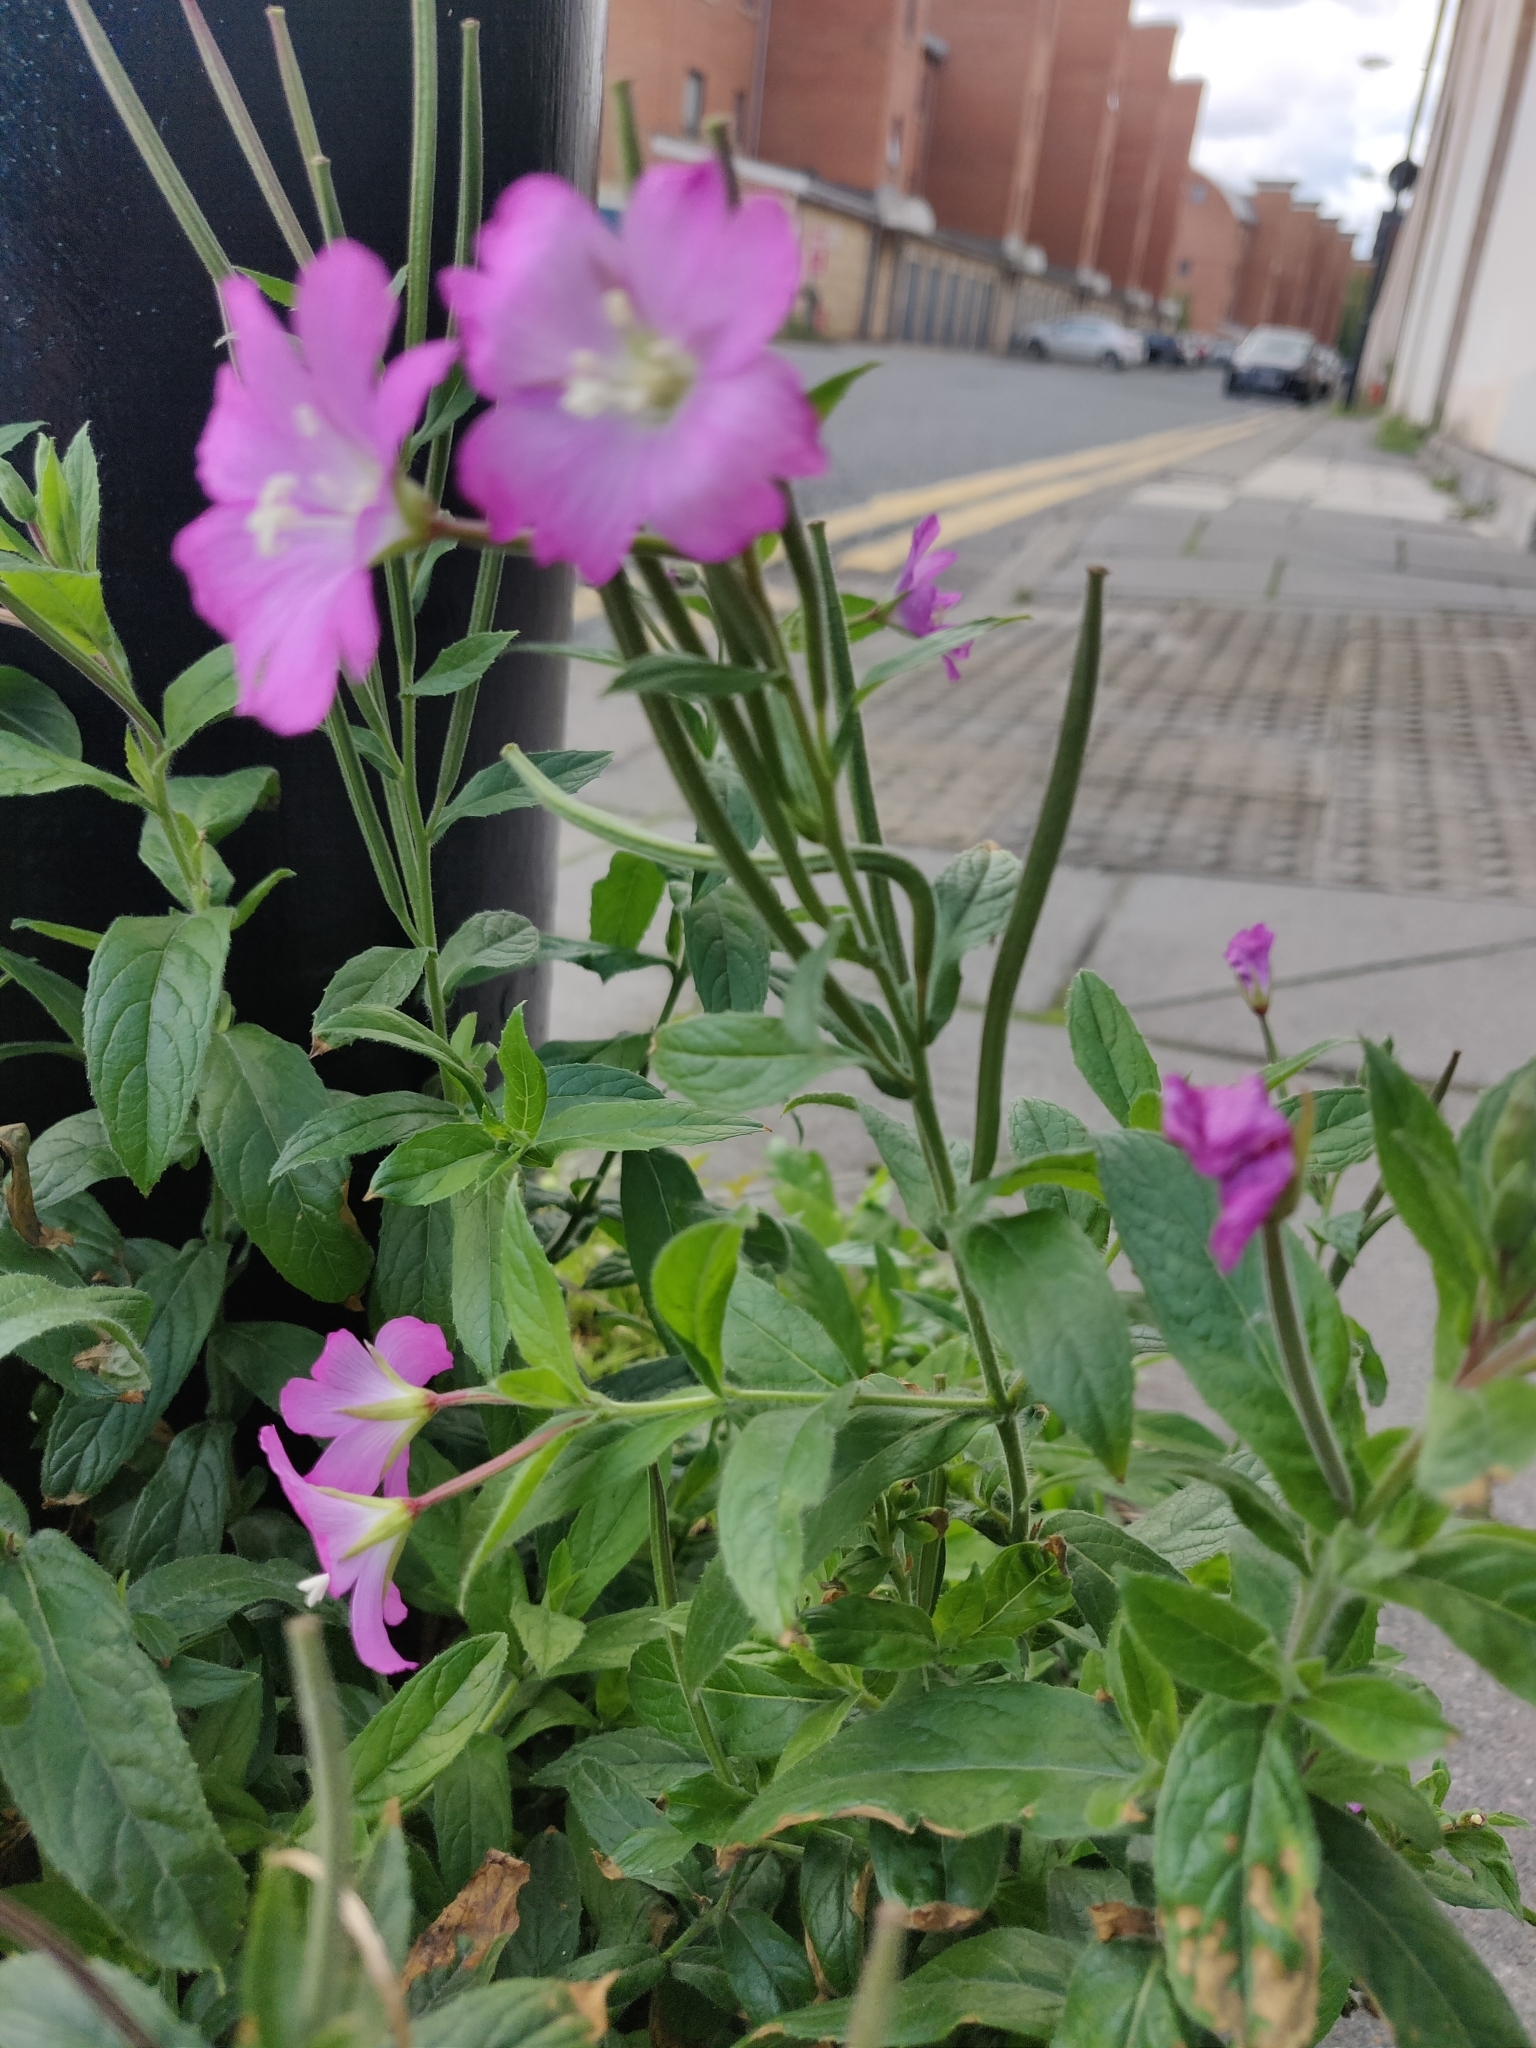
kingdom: Plantae
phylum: Tracheophyta
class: Magnoliopsida
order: Myrtales
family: Onagraceae
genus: Epilobium
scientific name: Epilobium hirsutum
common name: Great willowherb
